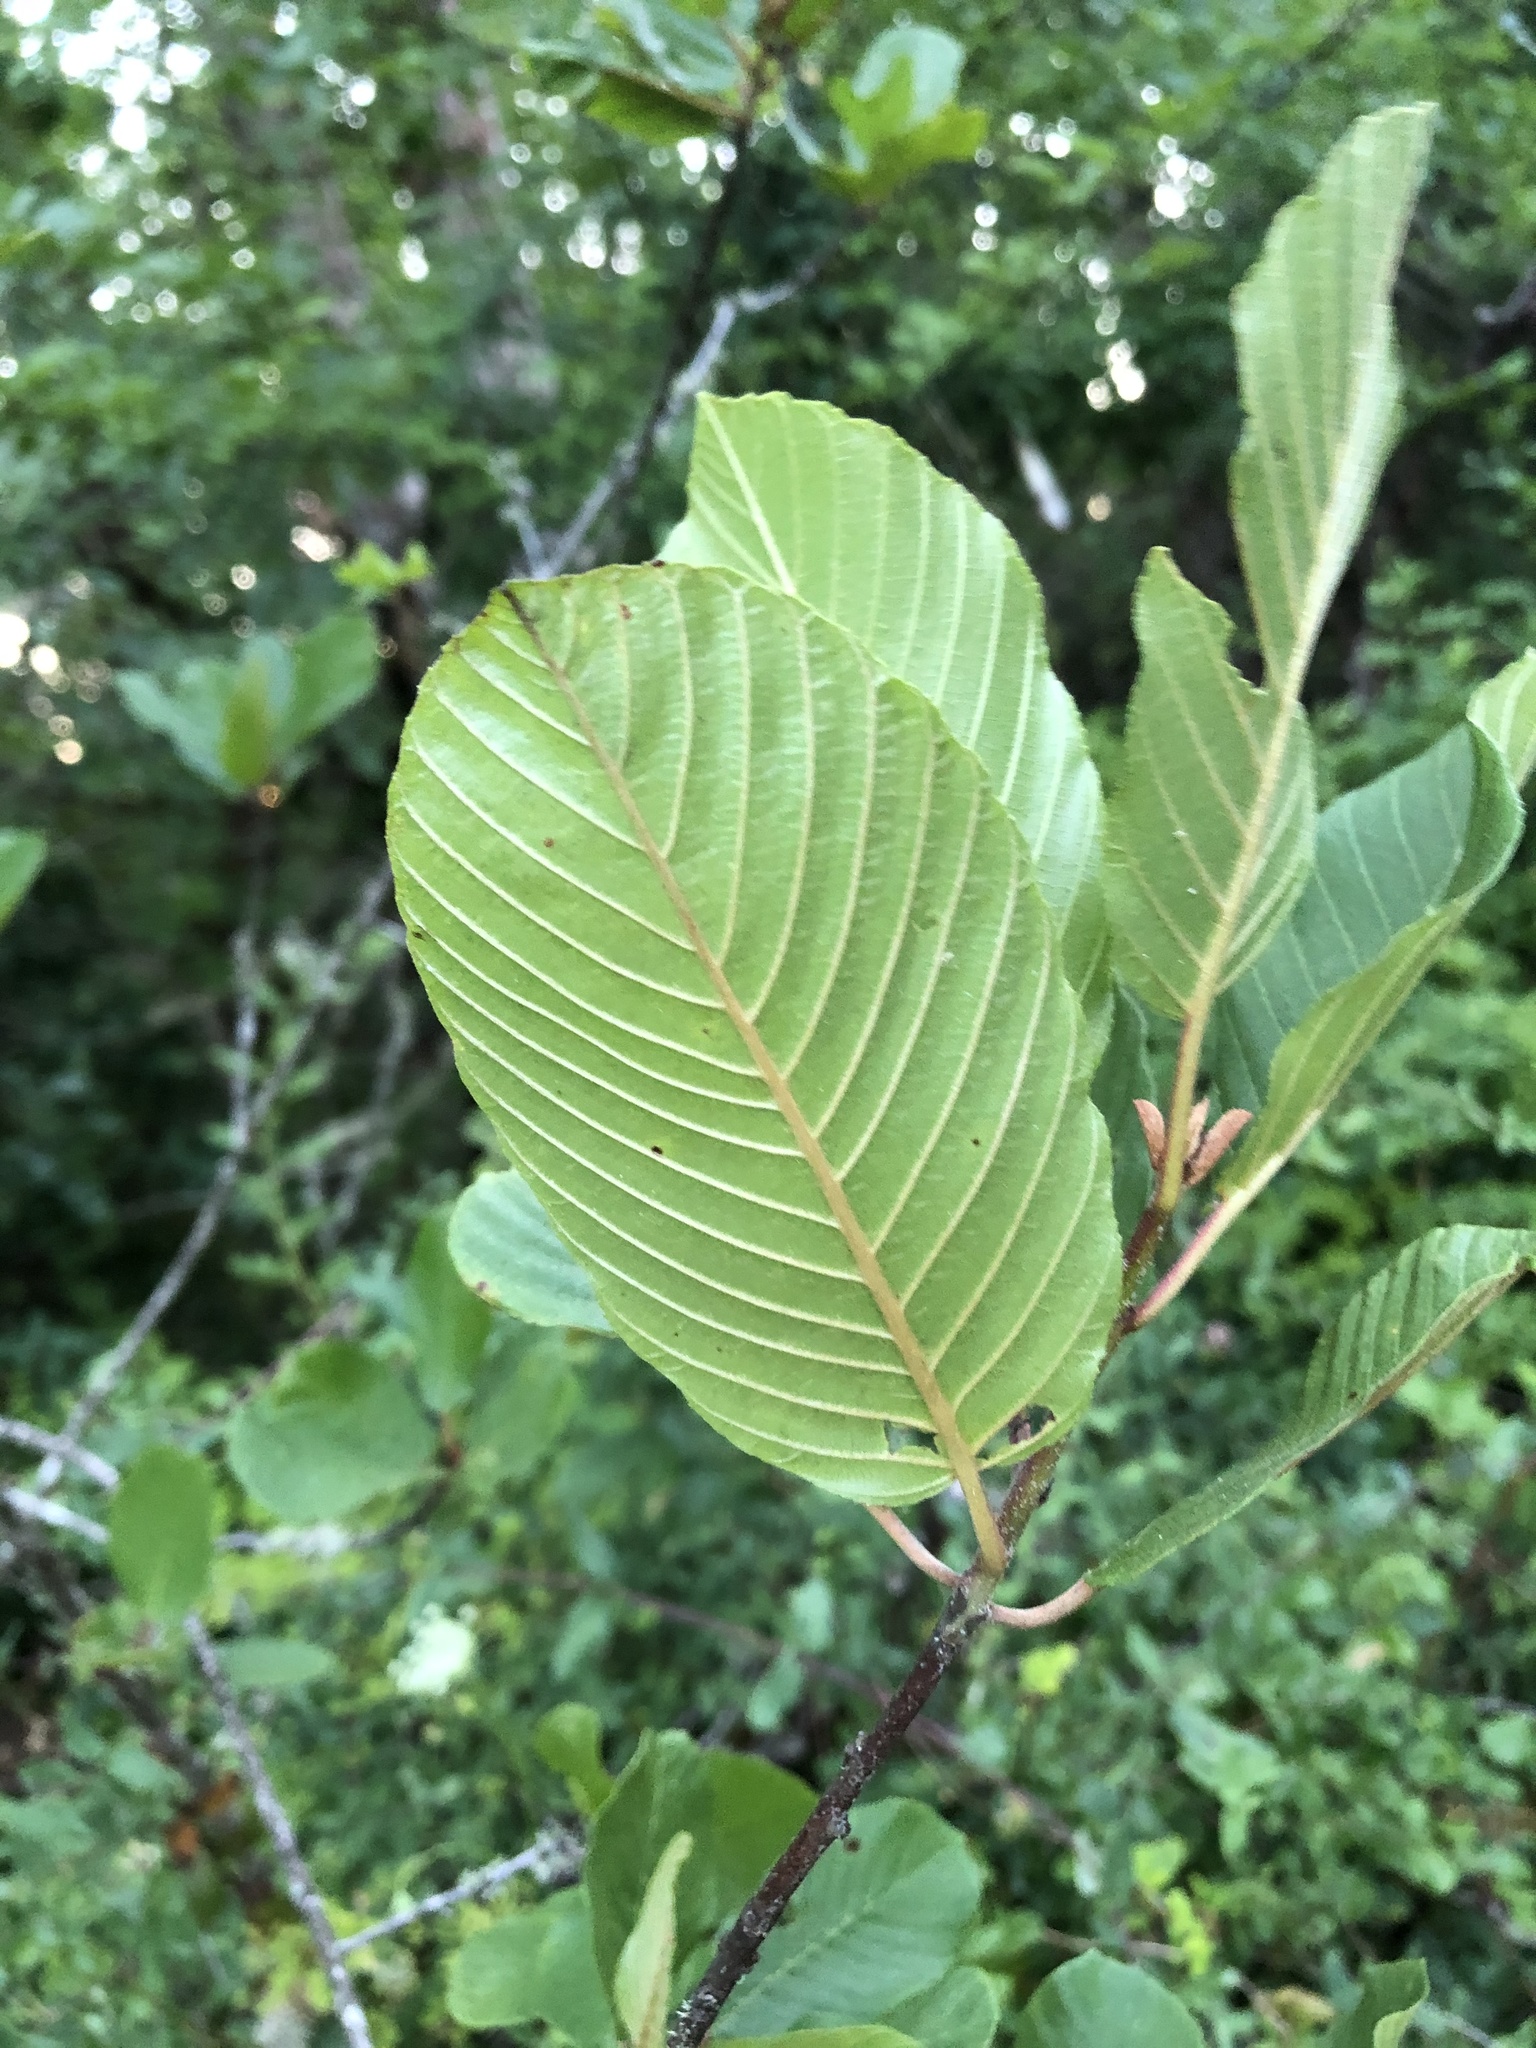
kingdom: Plantae
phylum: Tracheophyta
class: Magnoliopsida
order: Rosales
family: Rhamnaceae
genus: Frangula
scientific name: Frangula purshiana
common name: Cascara buckthorn
